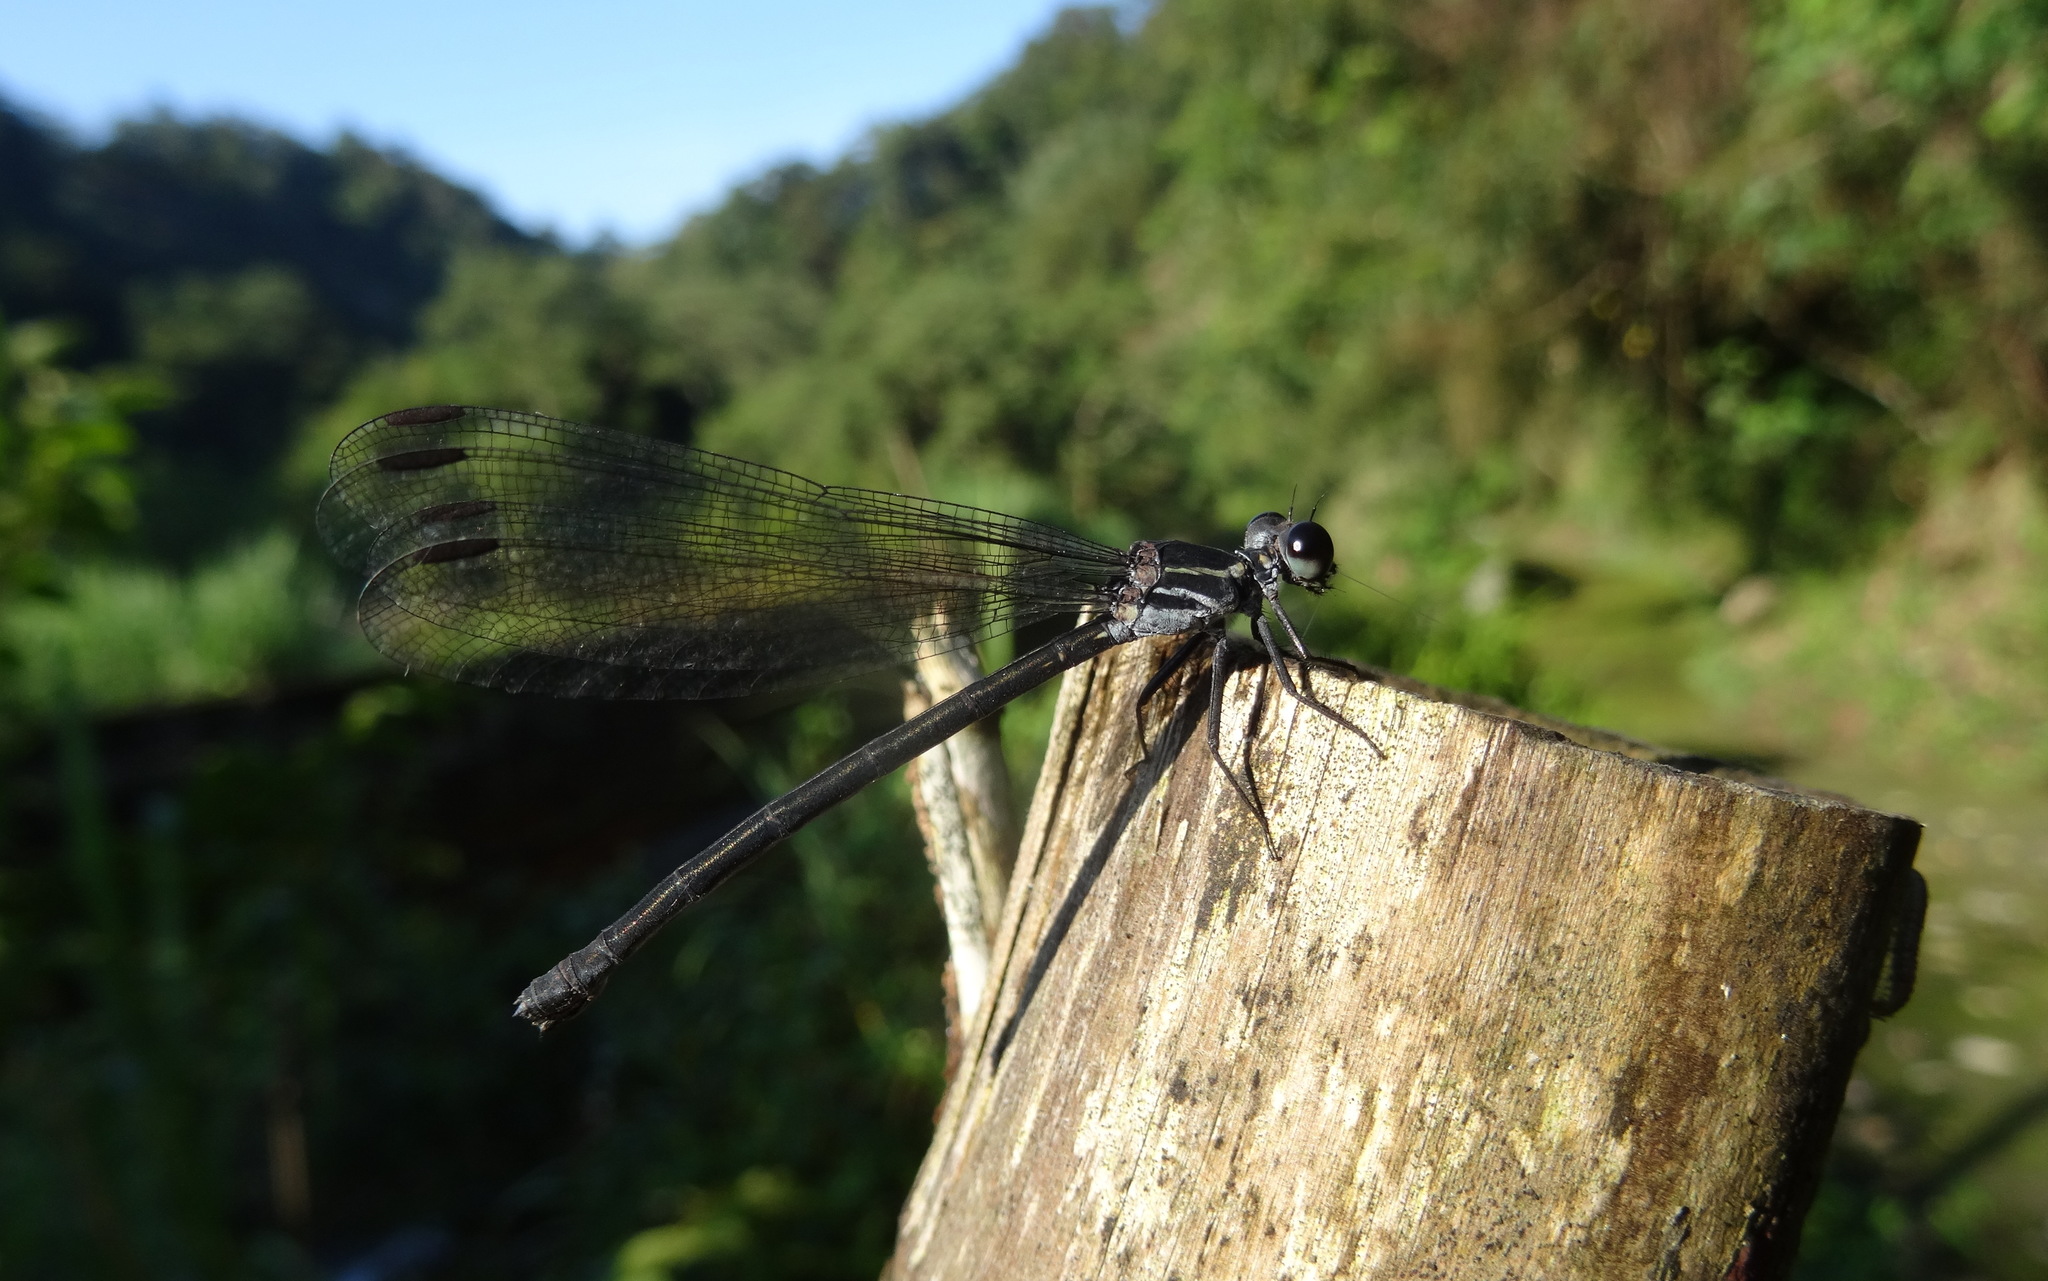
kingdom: Animalia
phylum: Arthropoda
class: Insecta
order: Odonata
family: Euphaeidae
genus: Bayadera
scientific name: Bayadera brevicauda
